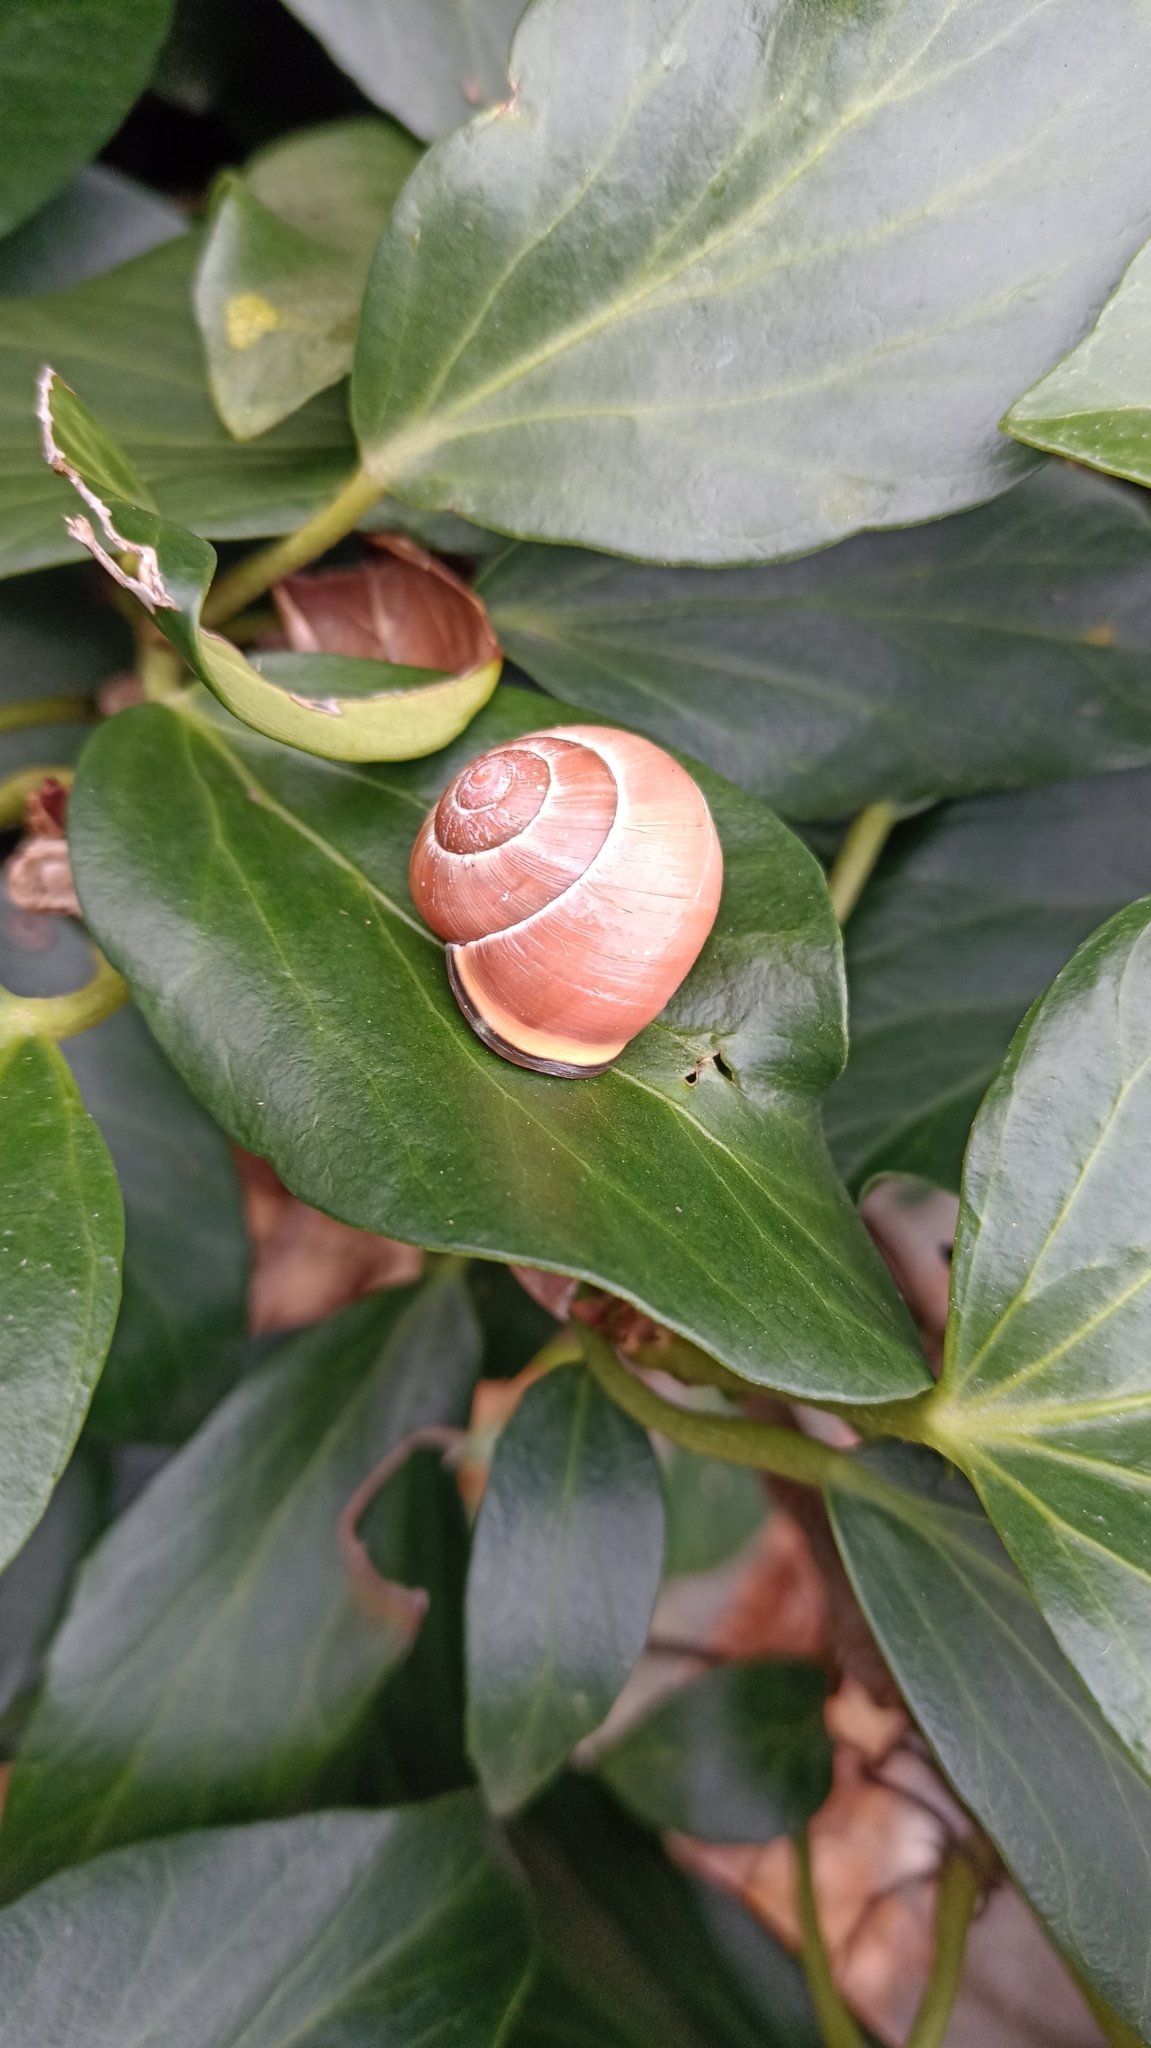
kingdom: Animalia
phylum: Mollusca
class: Gastropoda
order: Stylommatophora
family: Helicidae
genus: Cepaea
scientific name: Cepaea nemoralis
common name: Grovesnail
